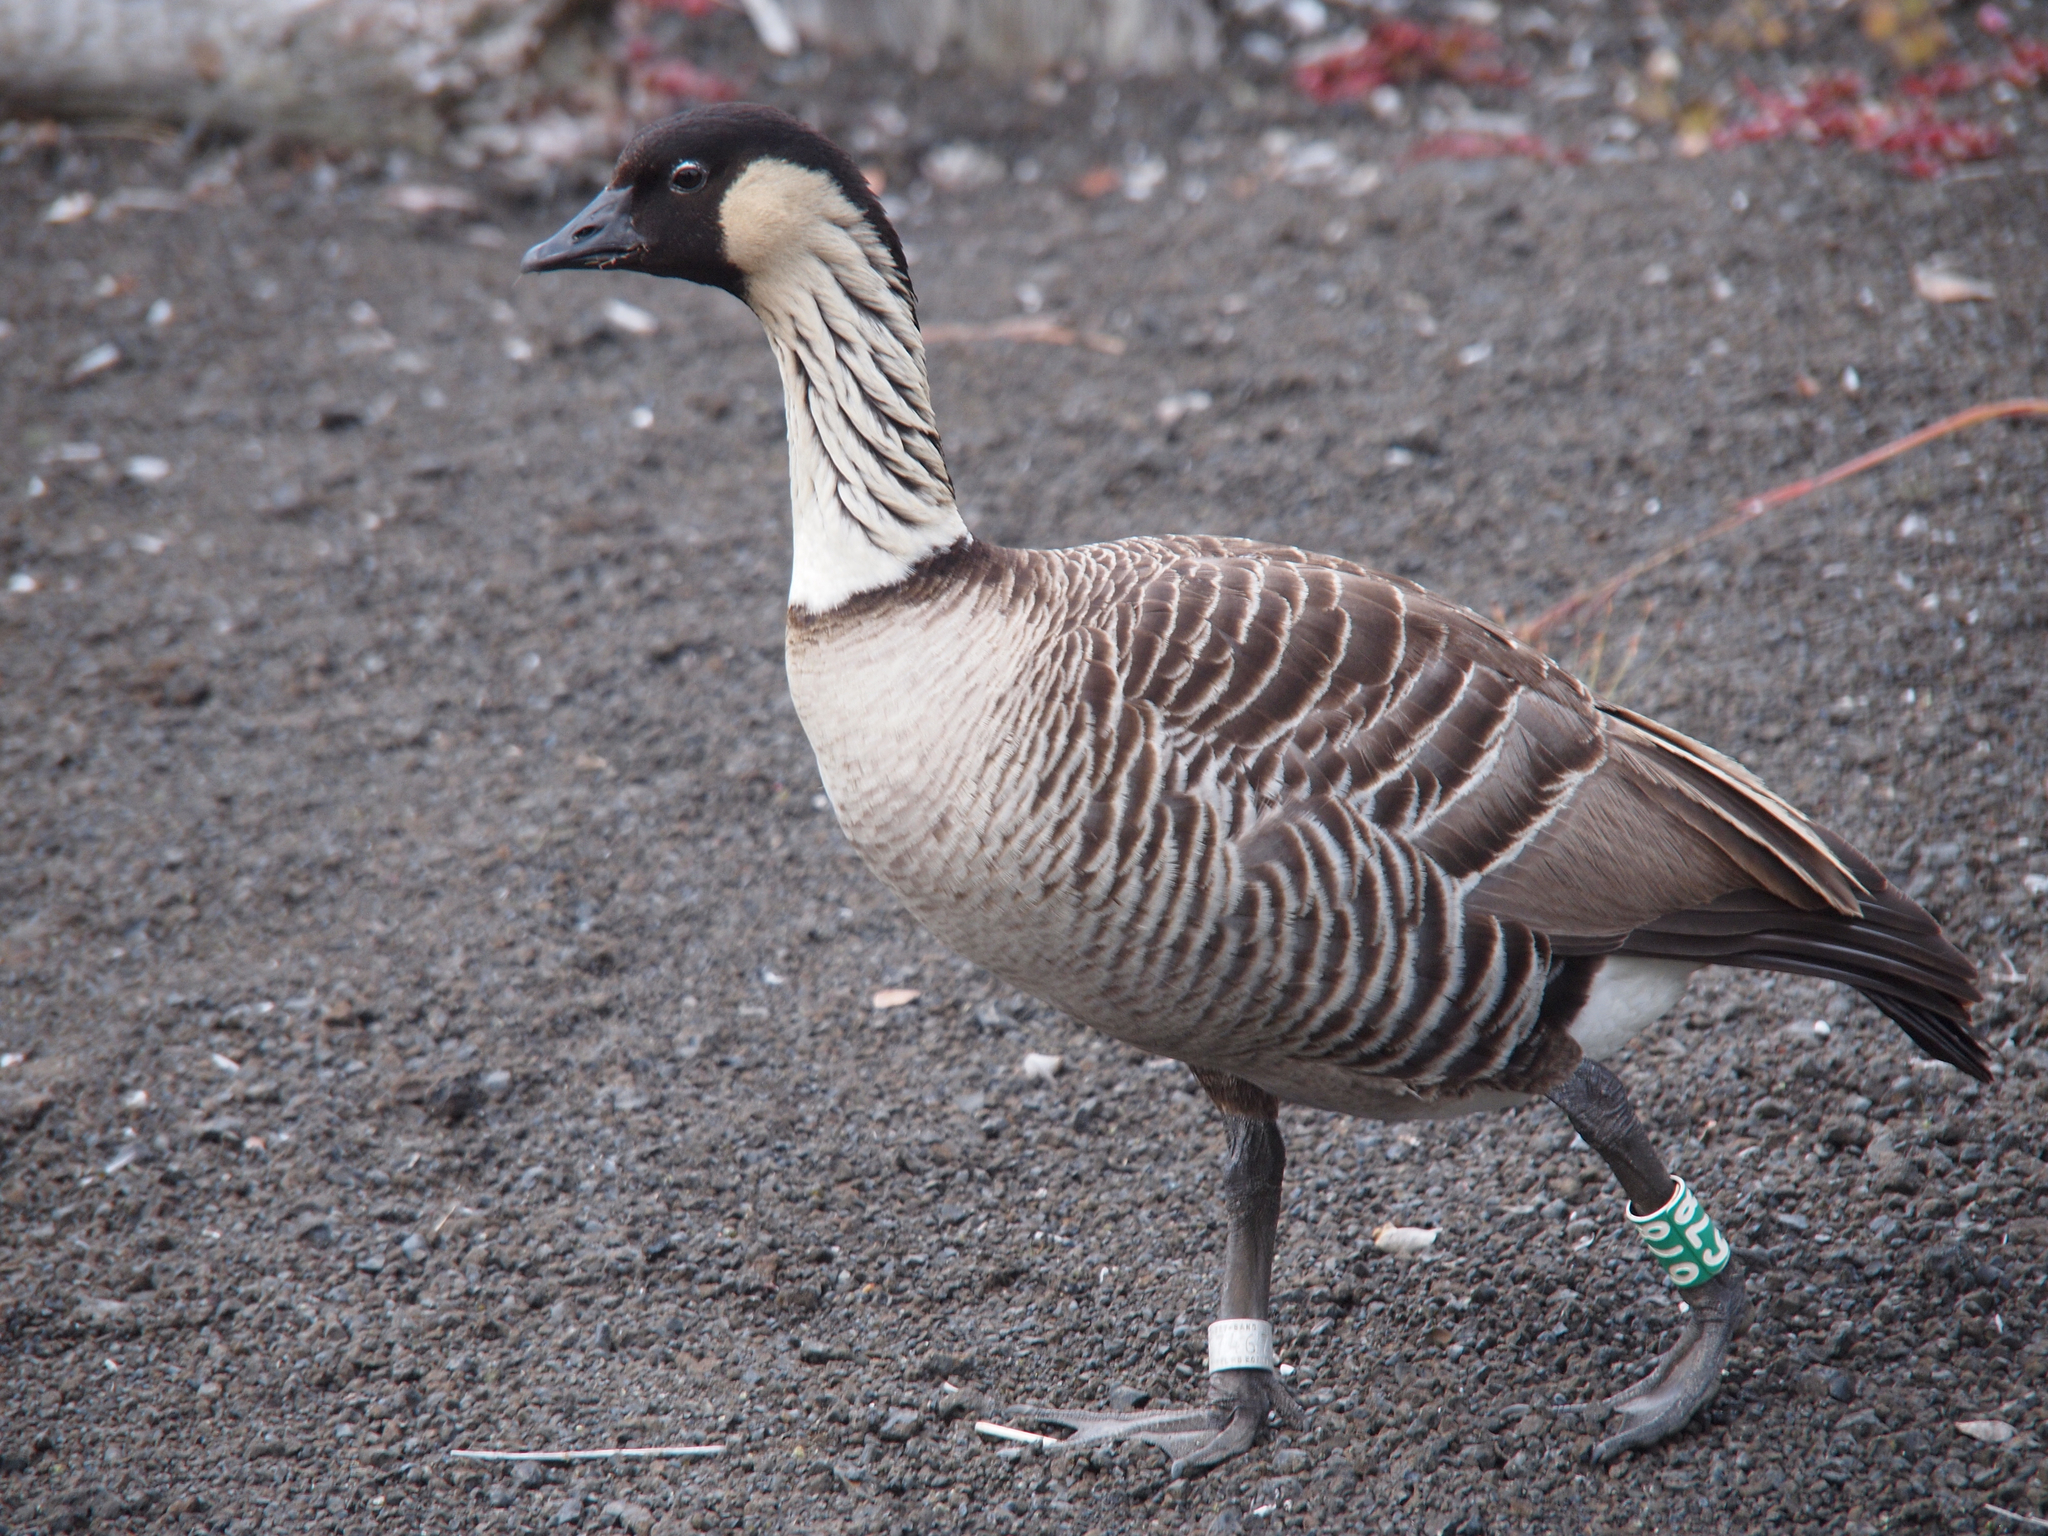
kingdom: Animalia
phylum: Chordata
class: Aves
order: Anseriformes
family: Anatidae
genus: Branta
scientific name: Branta sandvicensis
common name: Nene
